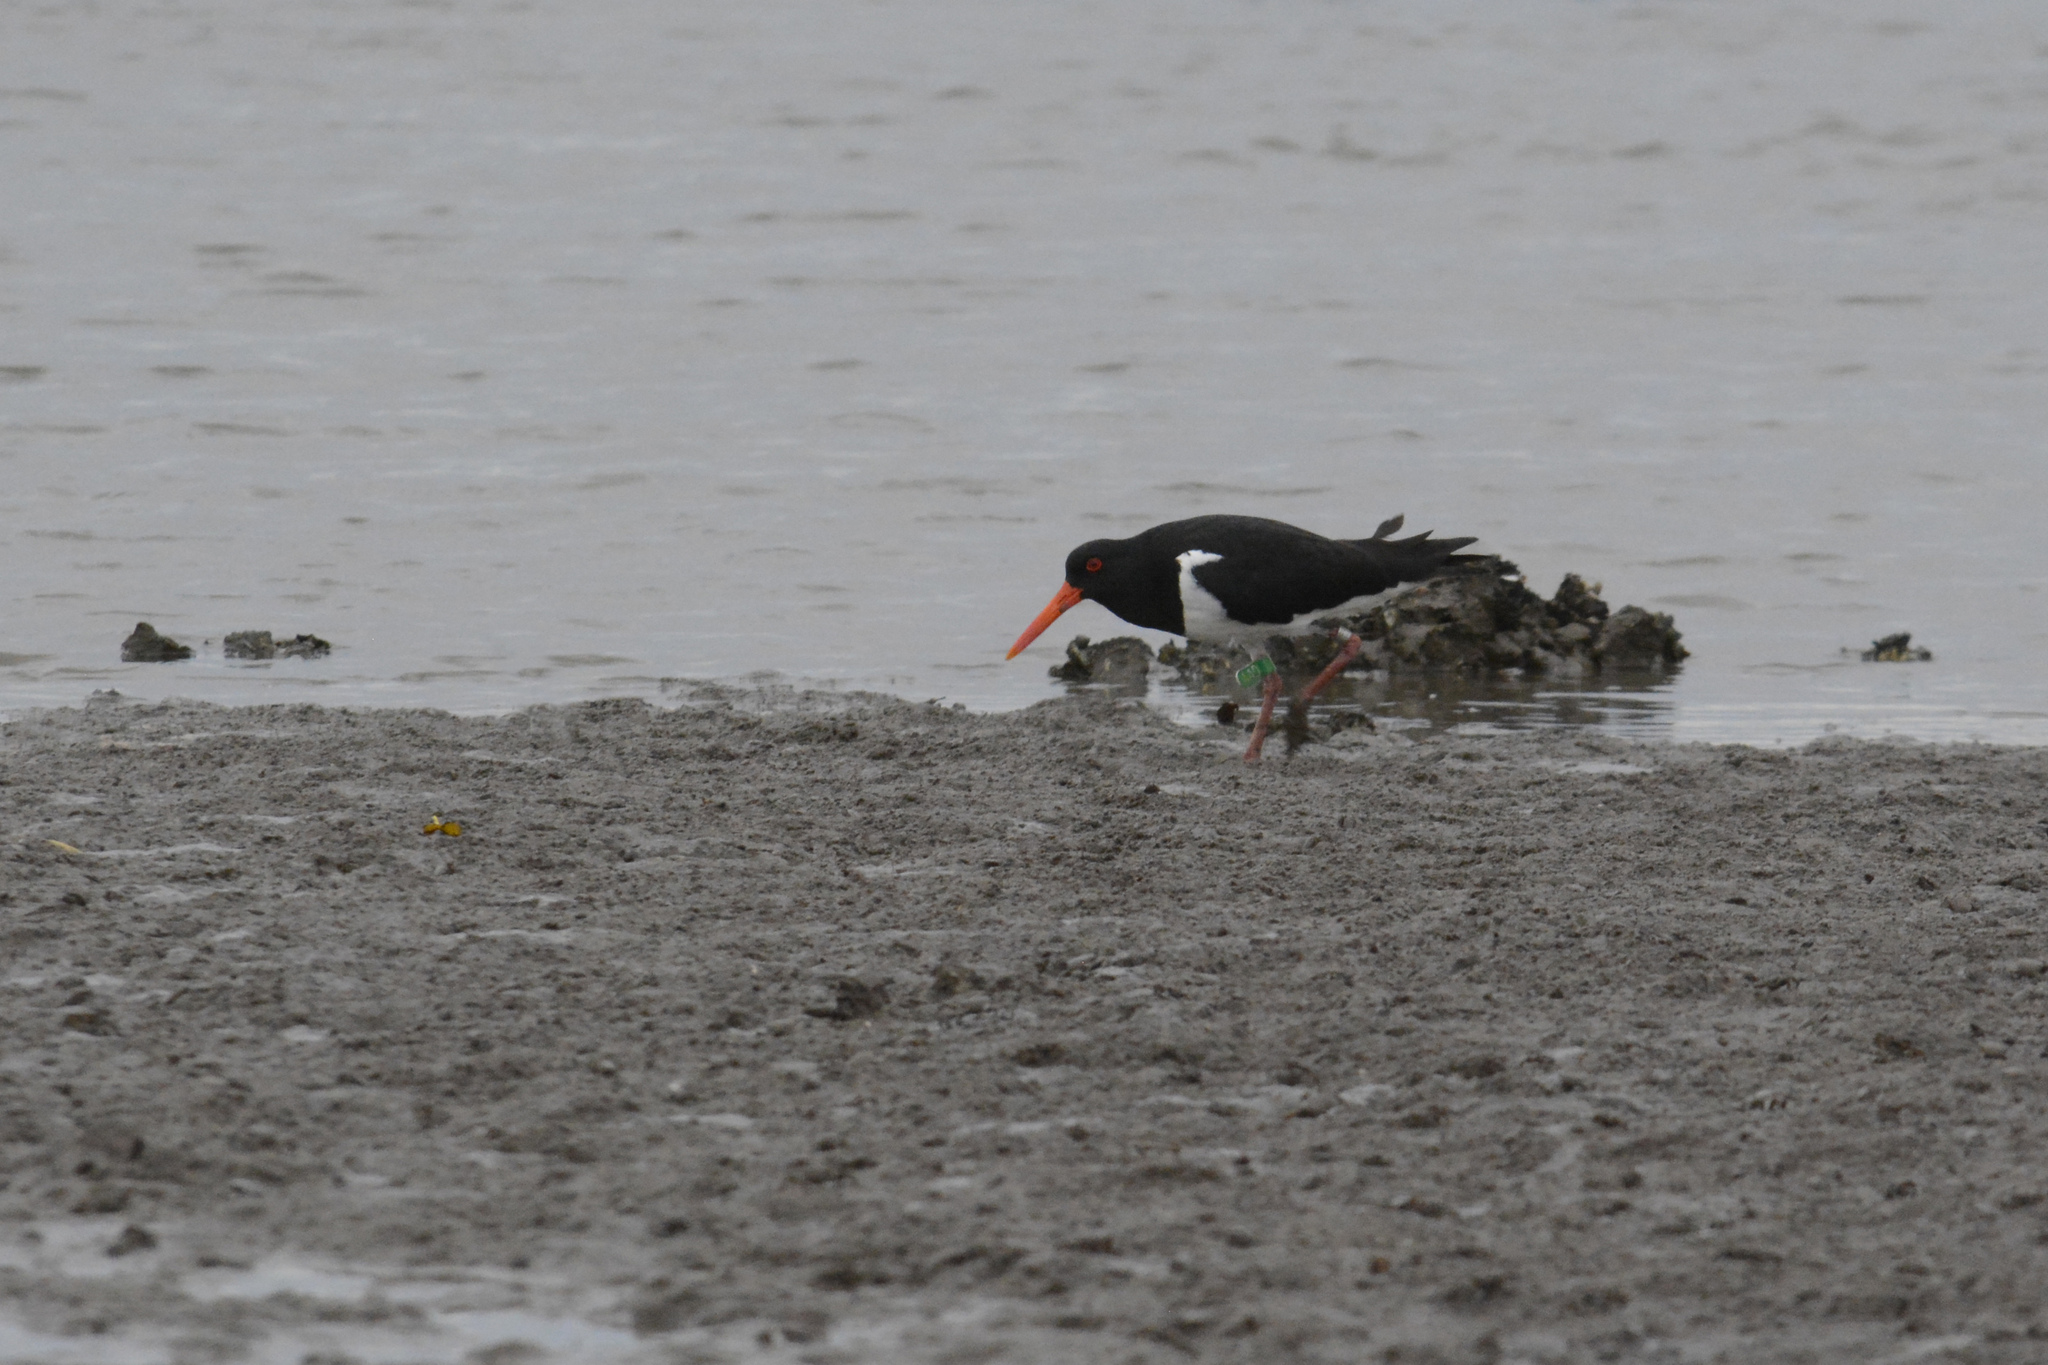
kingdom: Animalia
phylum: Chordata
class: Aves
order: Charadriiformes
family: Haematopodidae
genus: Haematopus
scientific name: Haematopus longirostris
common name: Pied oystercatcher
